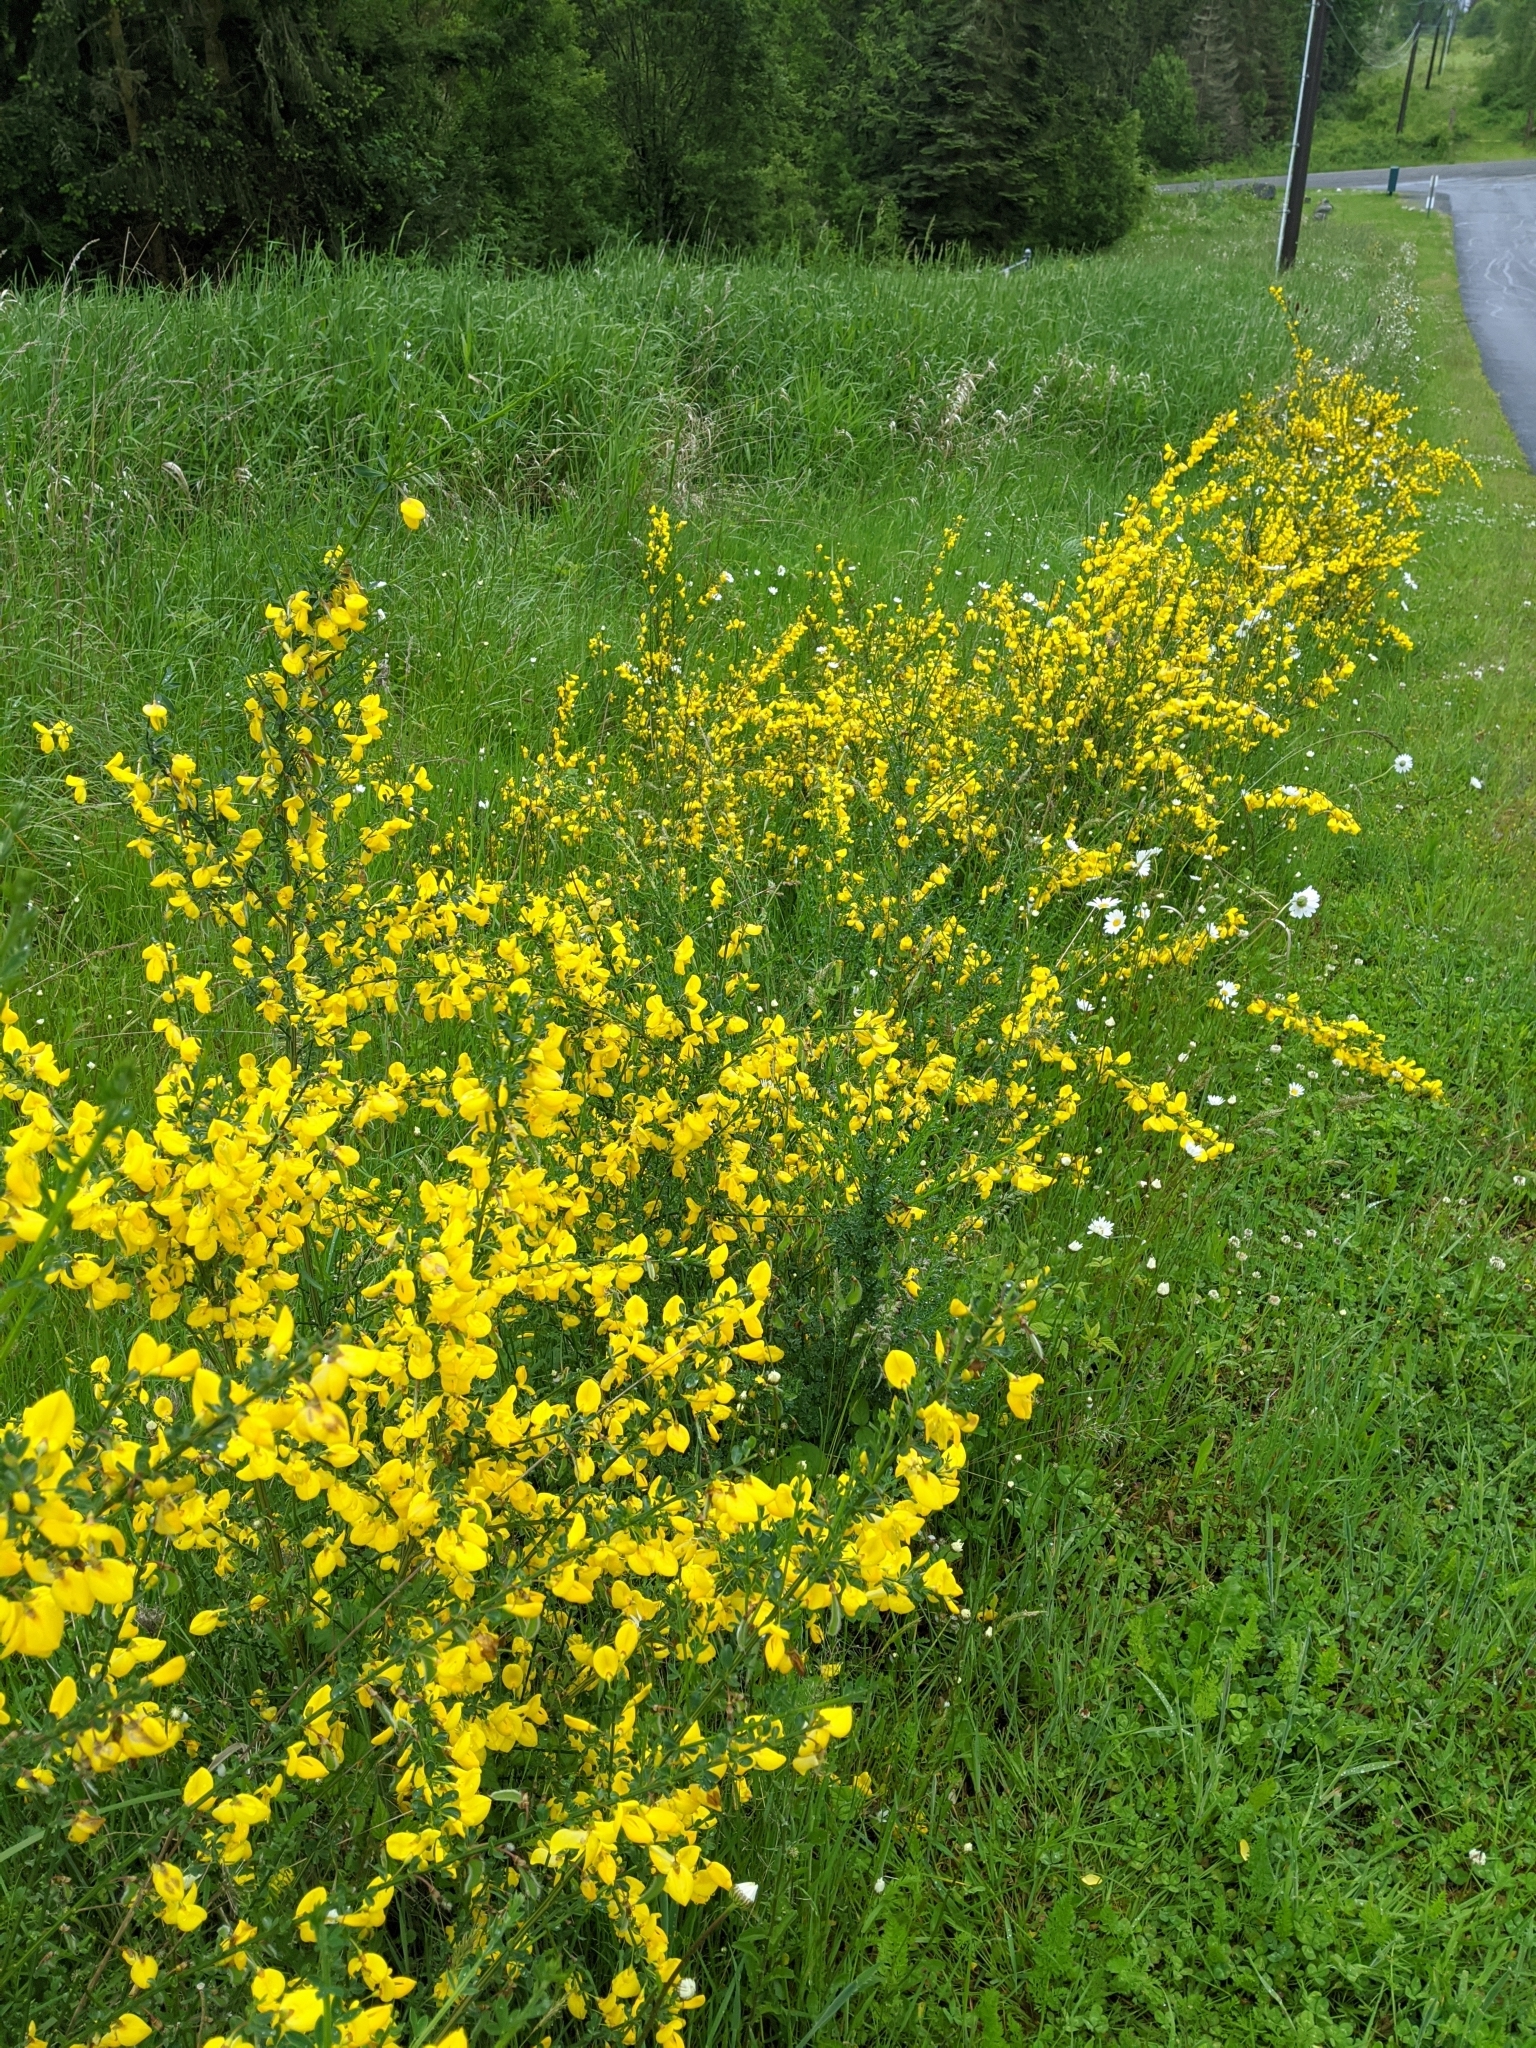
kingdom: Plantae
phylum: Tracheophyta
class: Magnoliopsida
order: Fabales
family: Fabaceae
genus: Cytisus
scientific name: Cytisus scoparius
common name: Scotch broom
